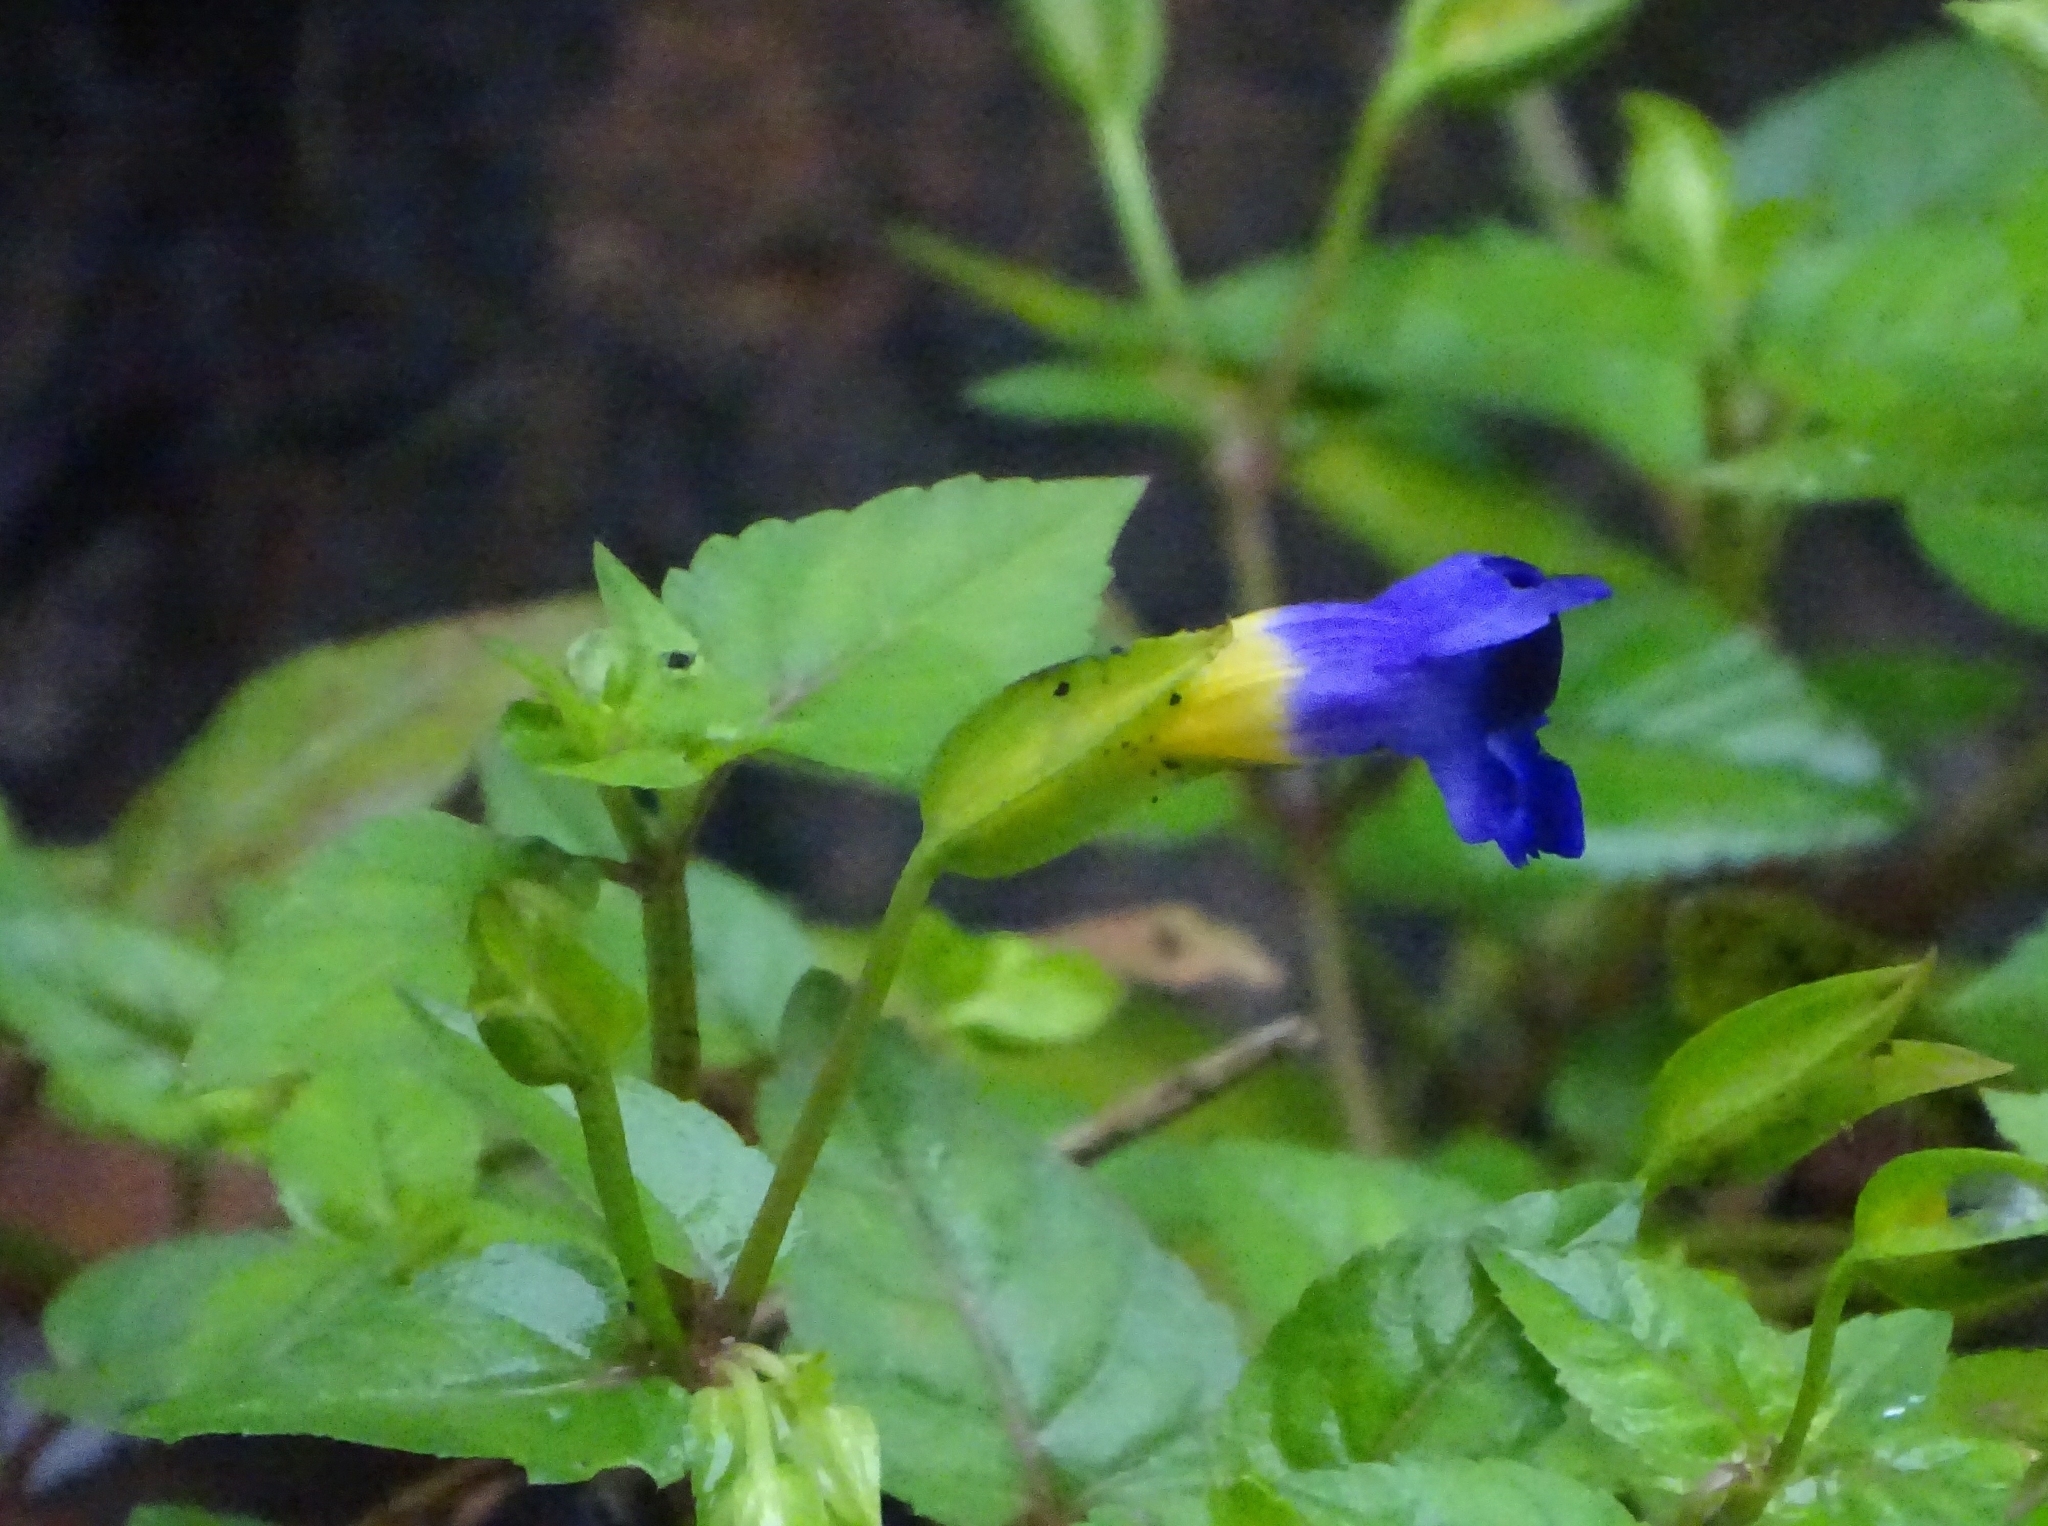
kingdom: Plantae
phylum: Tracheophyta
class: Magnoliopsida
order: Lamiales
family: Linderniaceae
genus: Torenia
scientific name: Torenia leucosiphon
